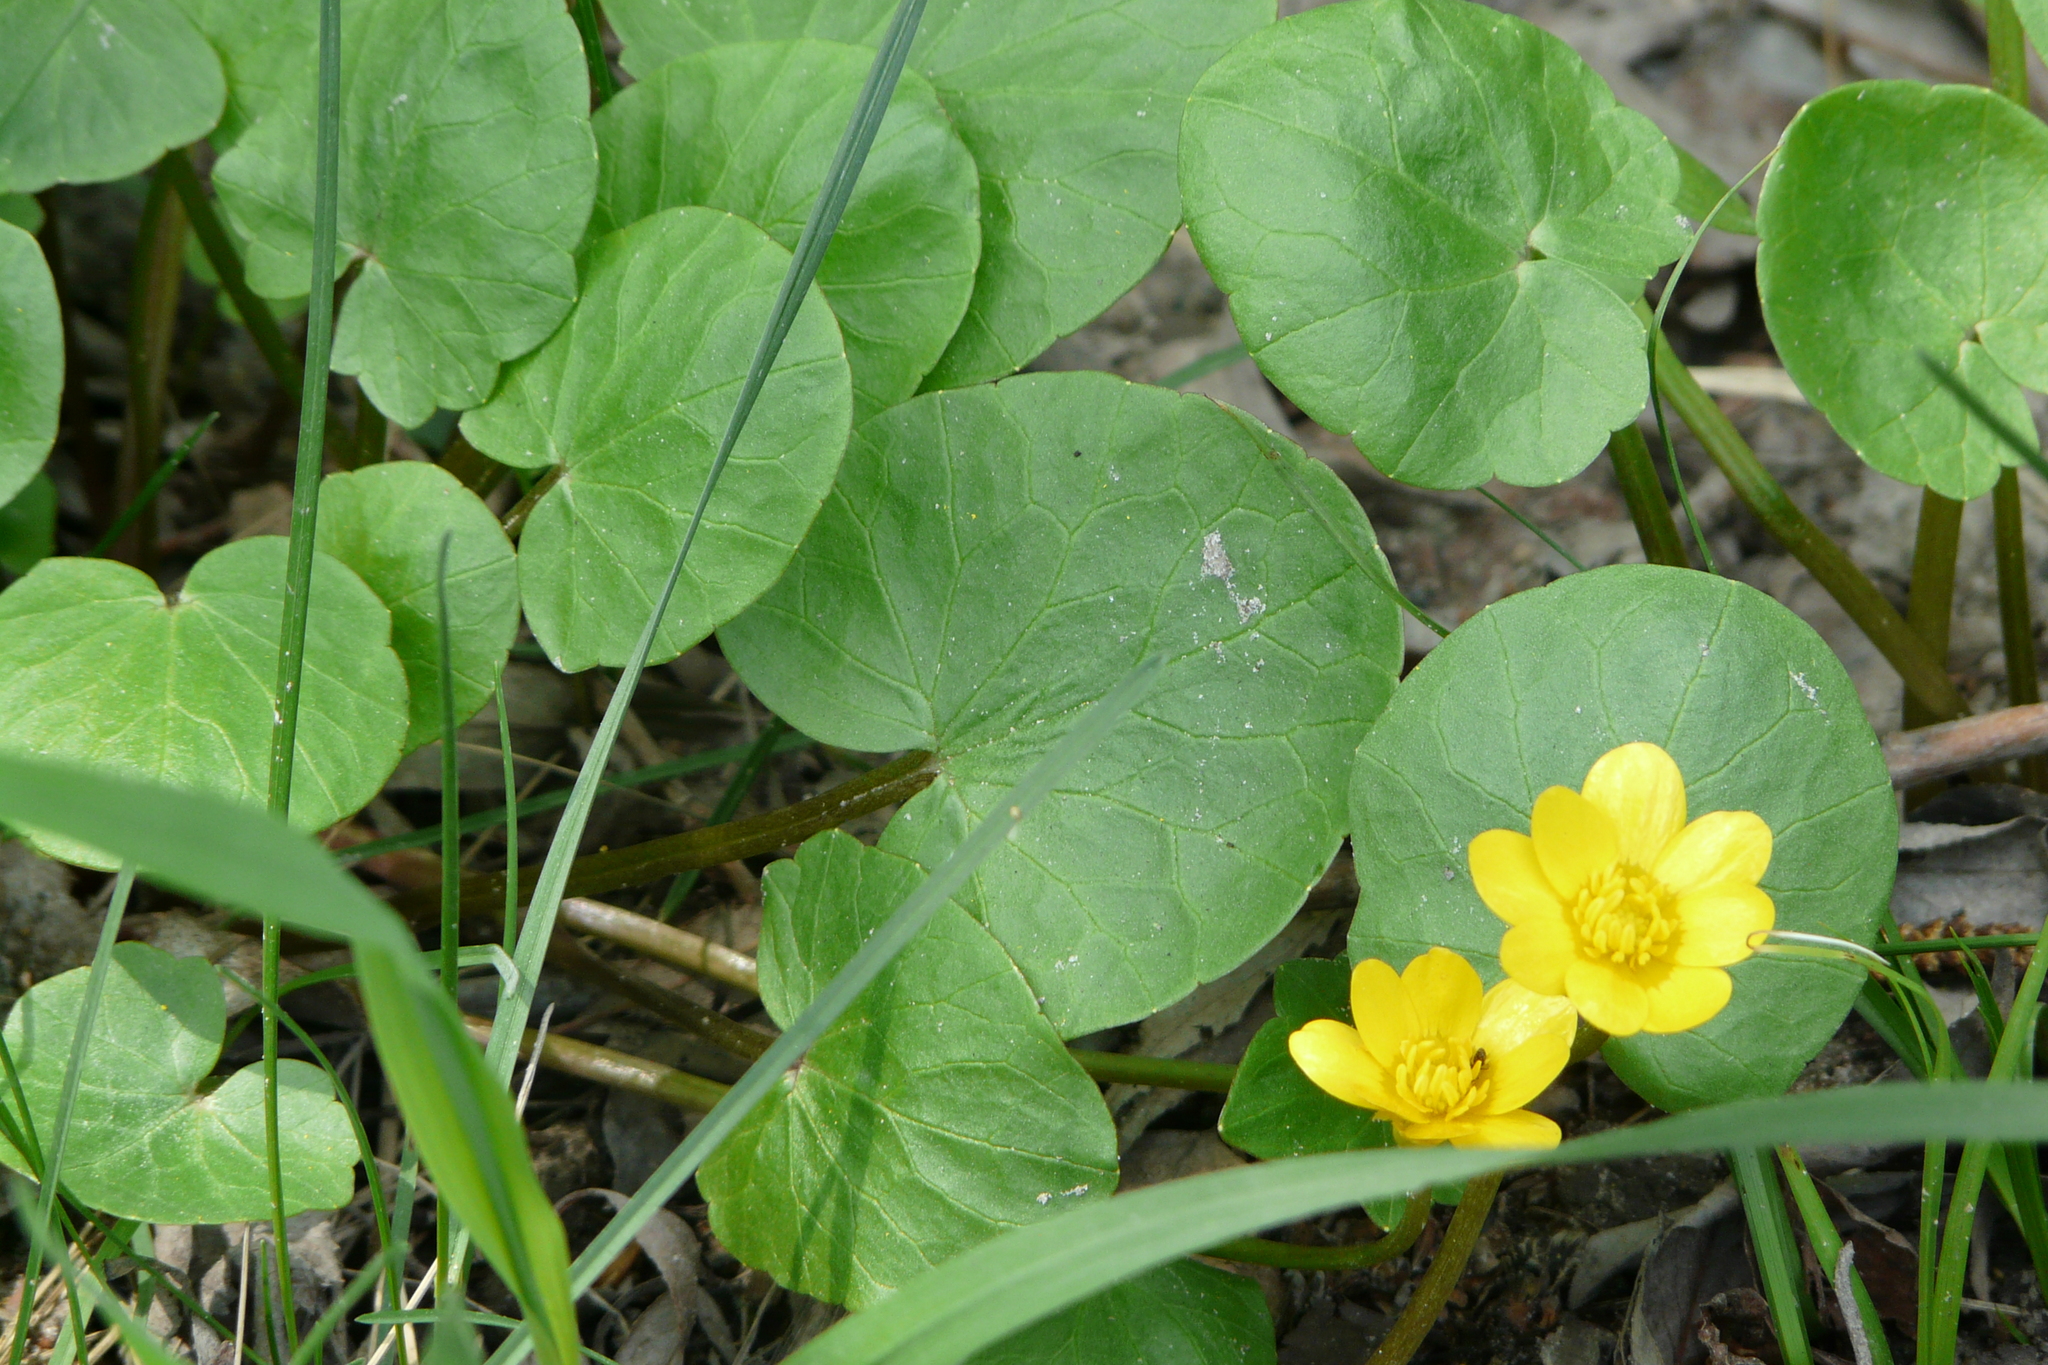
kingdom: Plantae
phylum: Tracheophyta
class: Magnoliopsida
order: Ranunculales
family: Ranunculaceae
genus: Ficaria
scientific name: Ficaria verna
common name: Lesser celandine
